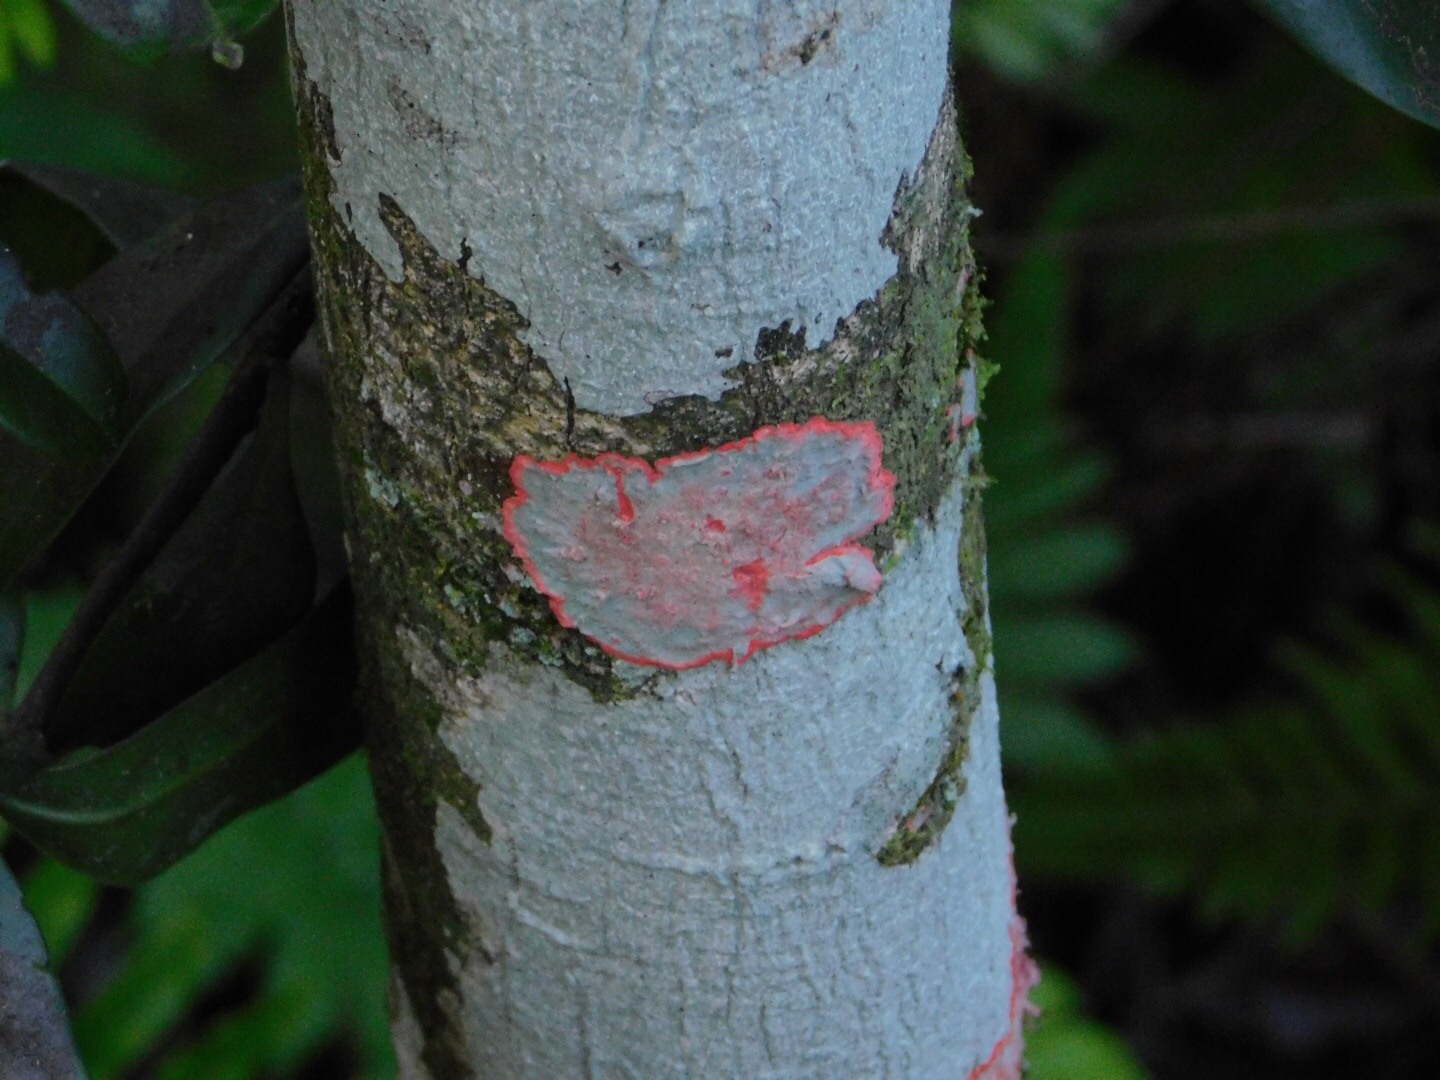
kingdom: Fungi
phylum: Ascomycota
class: Arthoniomycetes
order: Arthoniales
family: Arthoniaceae
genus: Herpothallon
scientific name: Herpothallon rubrocinctum
